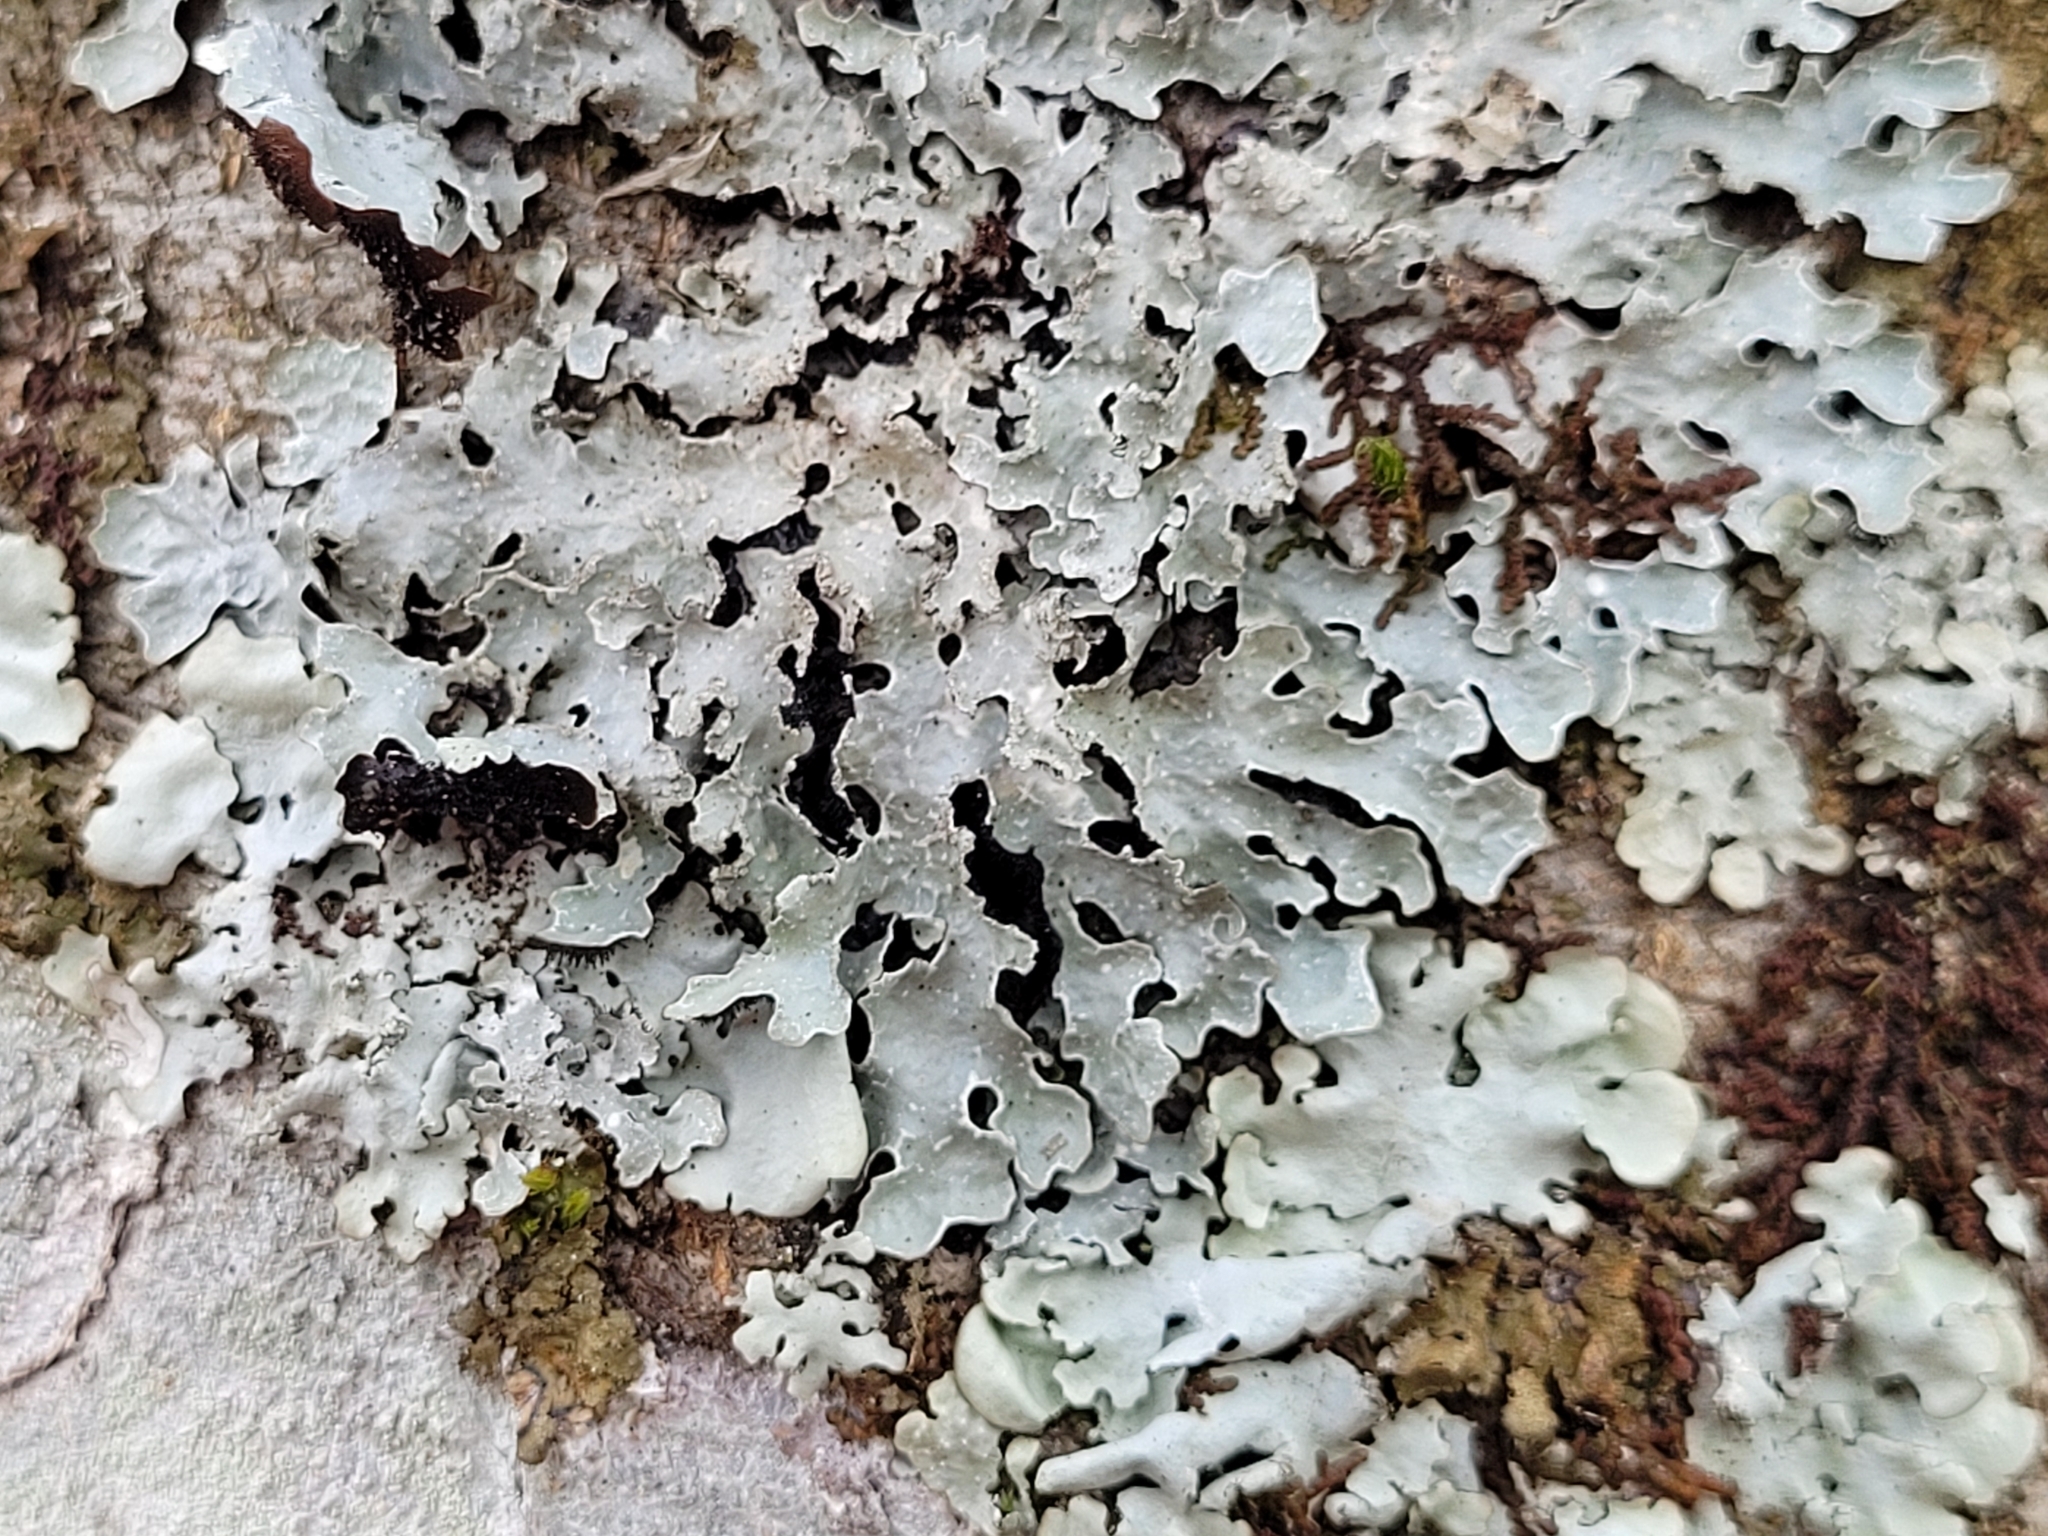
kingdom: Fungi
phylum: Ascomycota
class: Lecanoromycetes
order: Lecanorales
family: Parmeliaceae
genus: Parmelia
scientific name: Parmelia sulcata
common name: Netted shield lichen
